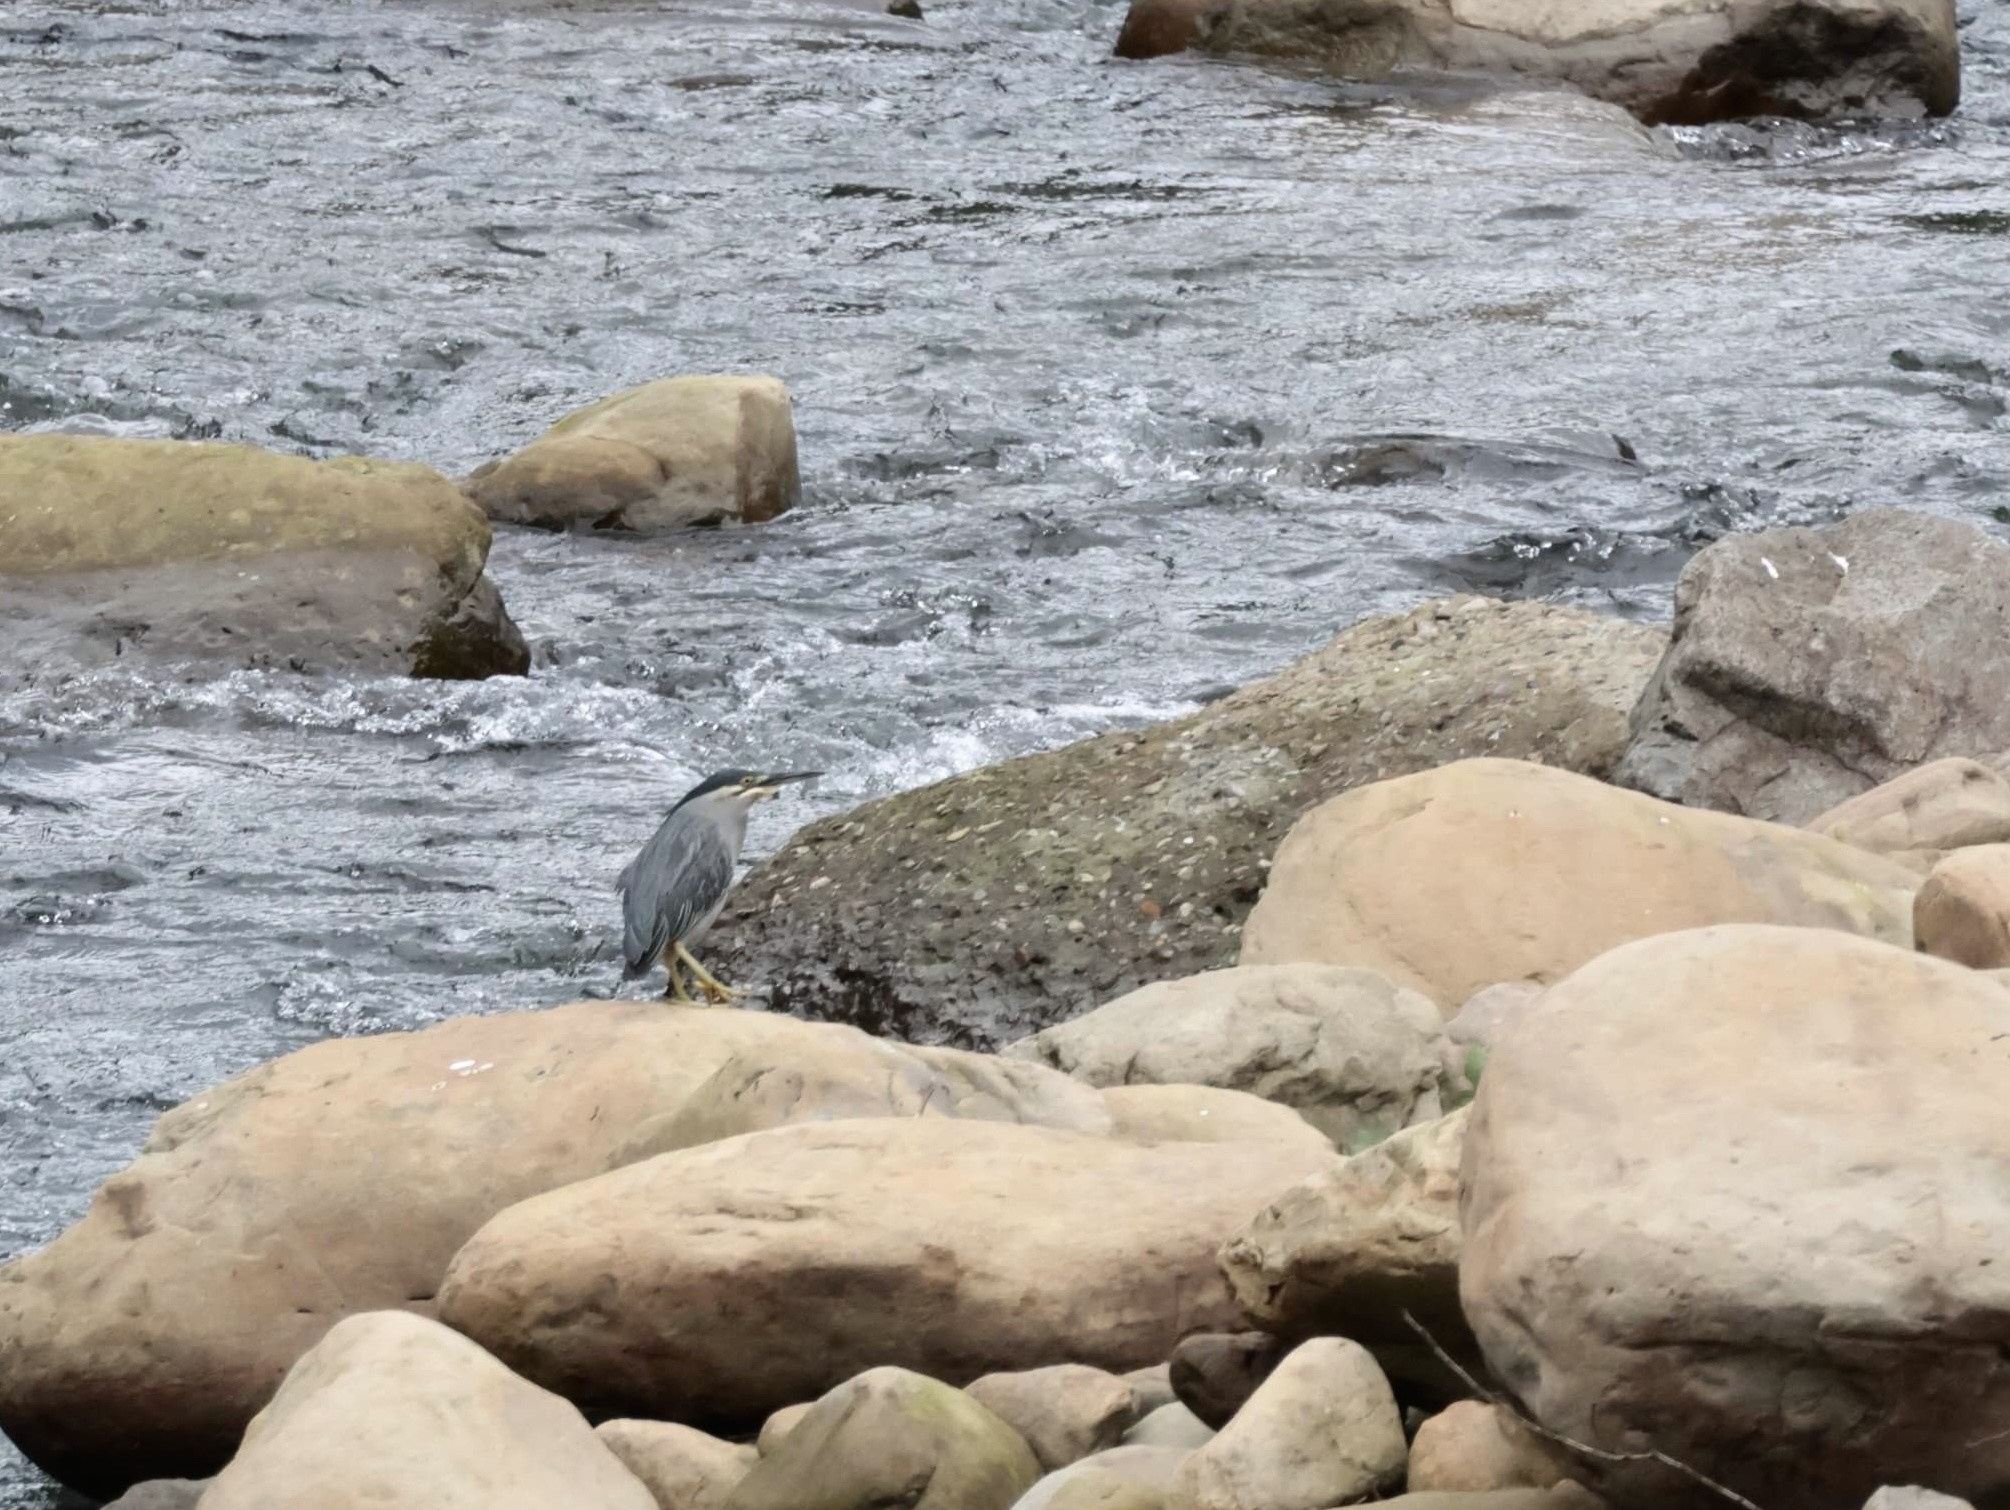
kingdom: Animalia
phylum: Chordata
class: Aves
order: Pelecaniformes
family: Ardeidae
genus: Butorides
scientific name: Butorides striata
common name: Striated heron
